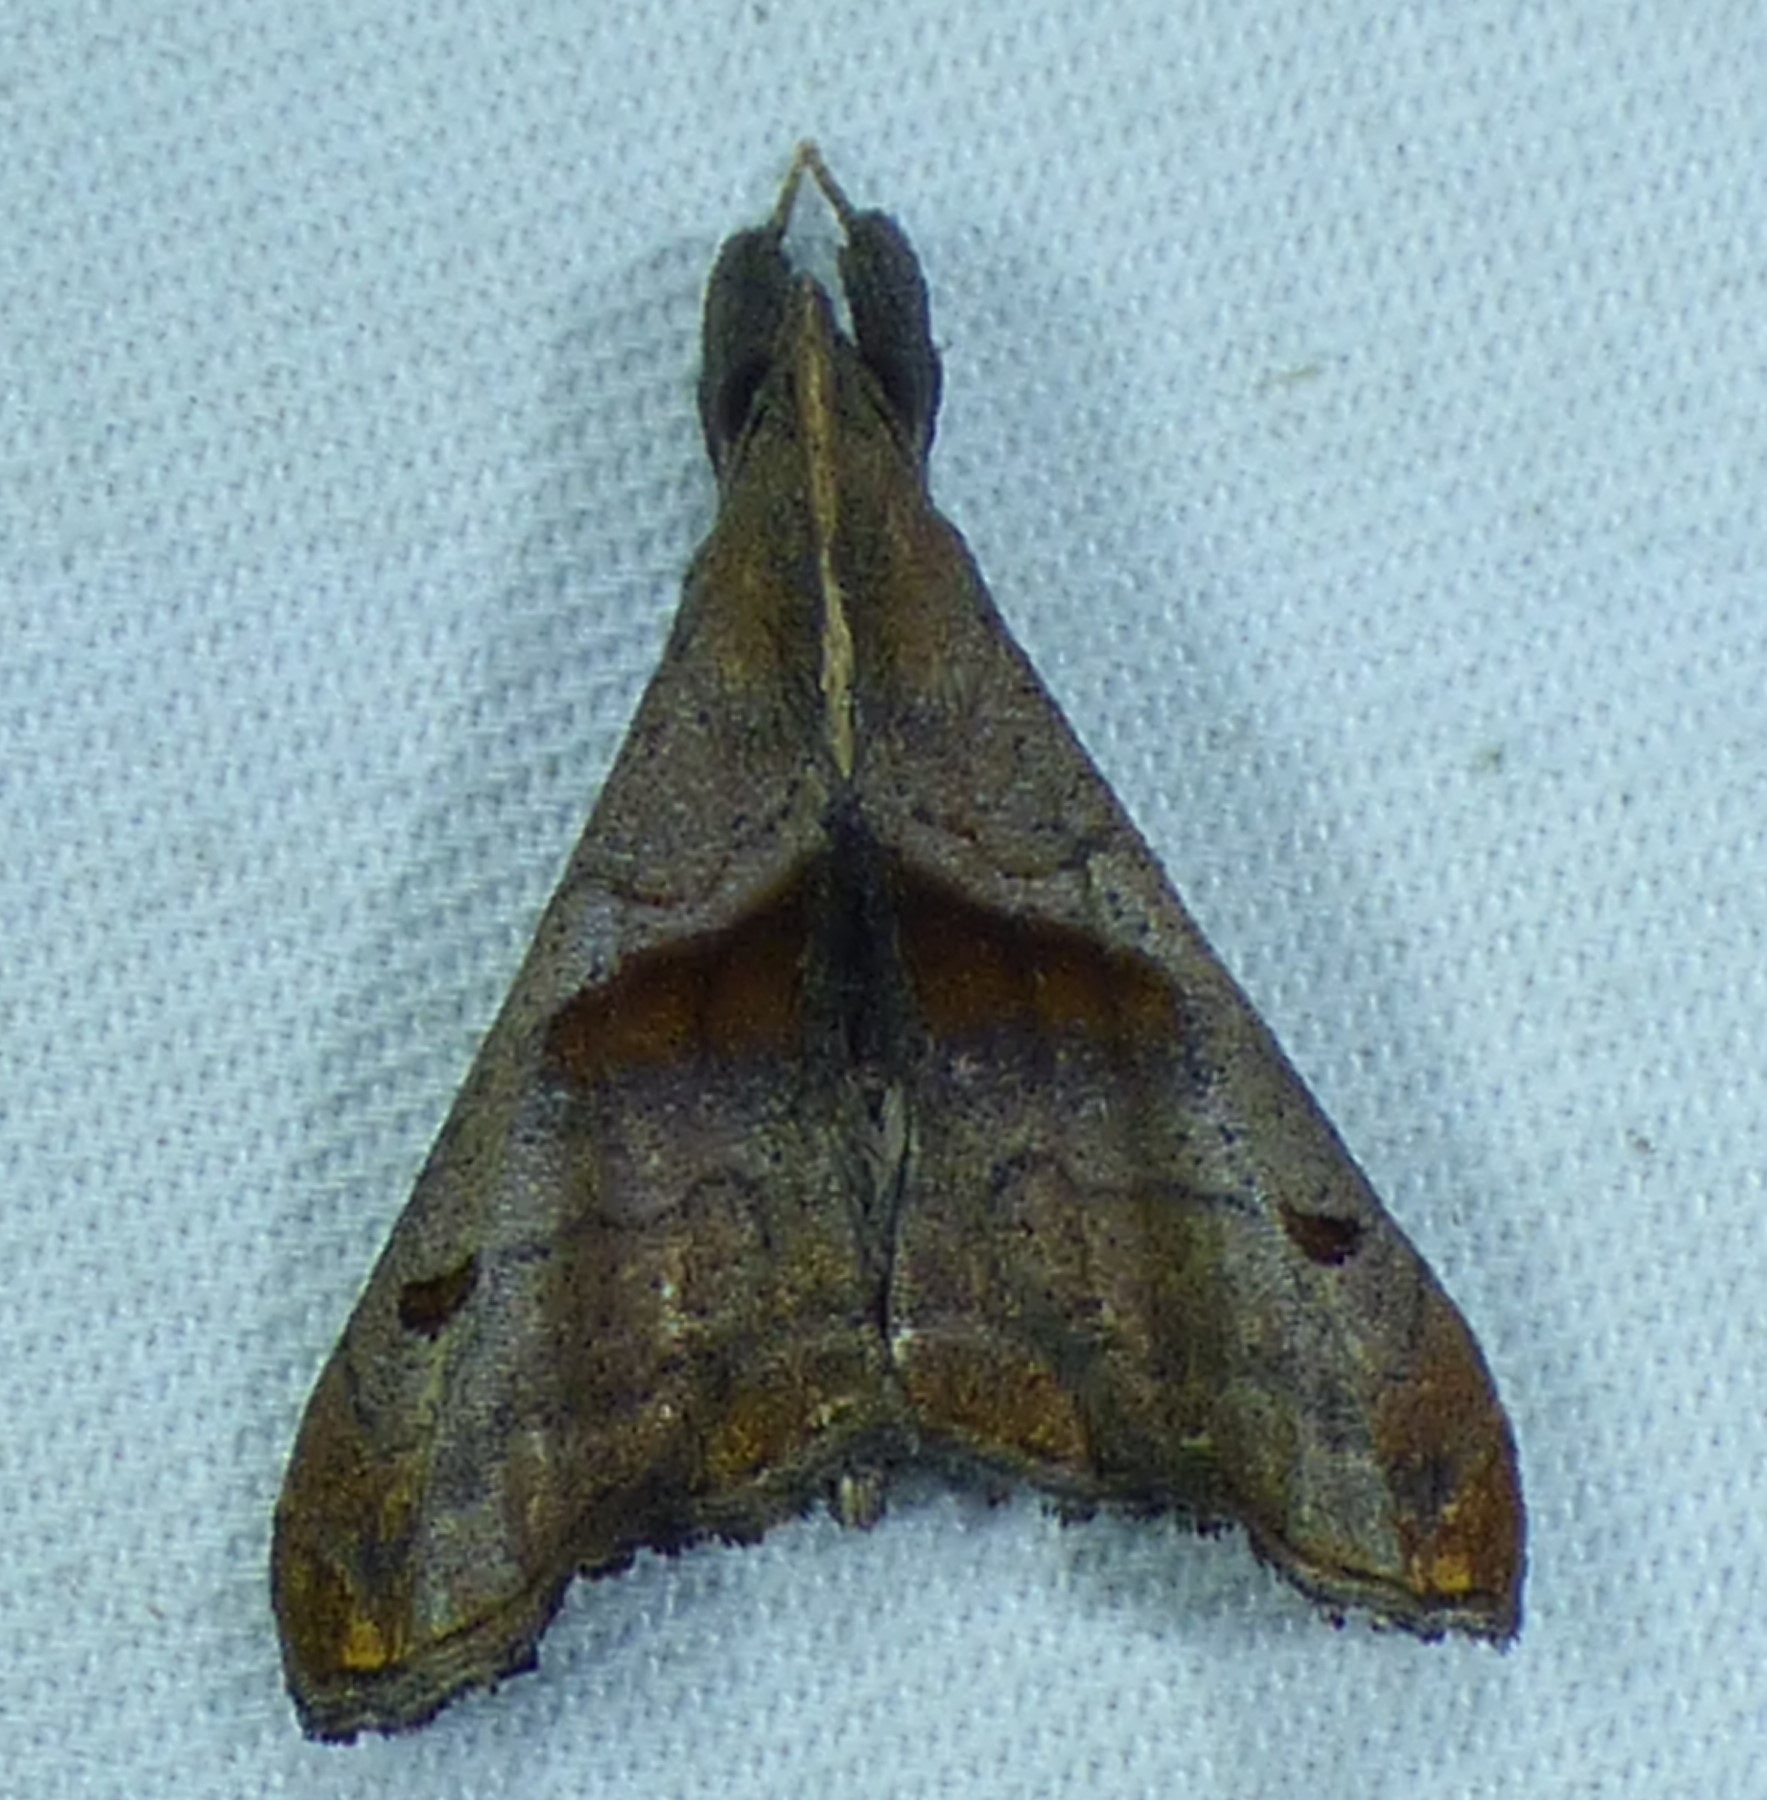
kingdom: Animalia
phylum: Arthropoda
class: Insecta
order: Lepidoptera
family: Erebidae
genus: Palthis
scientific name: Palthis angulalis
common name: Dark-spotted palthis moth
